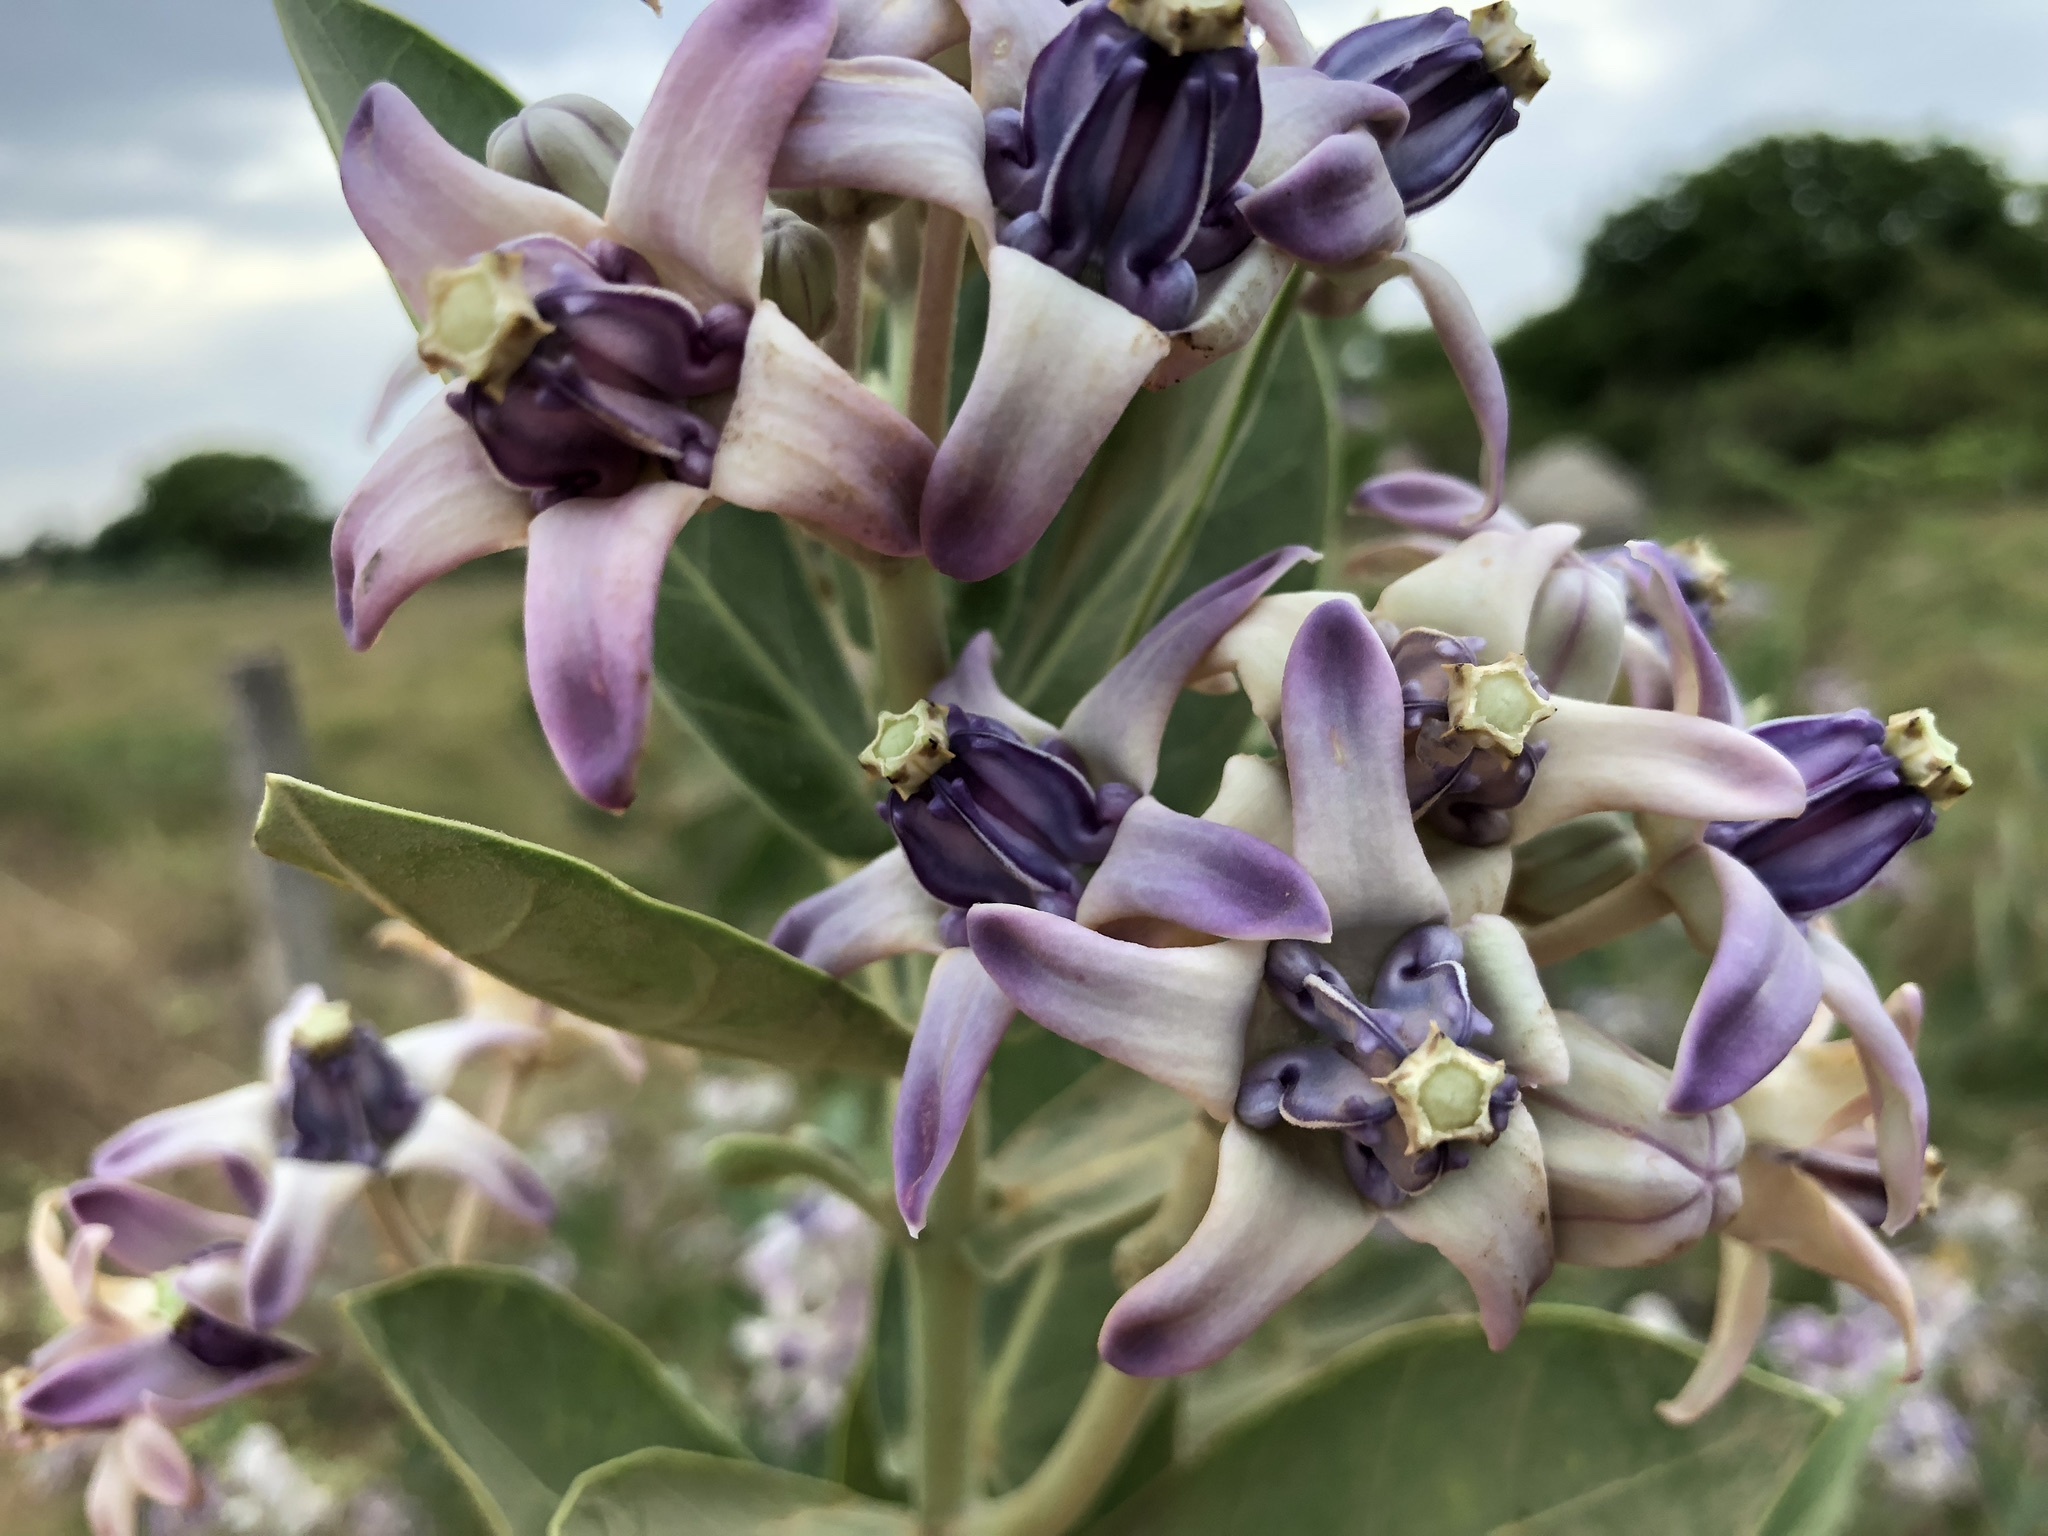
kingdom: Plantae
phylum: Tracheophyta
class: Magnoliopsida
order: Gentianales
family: Apocynaceae
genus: Calotropis
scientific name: Calotropis gigantea
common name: Crown flower
